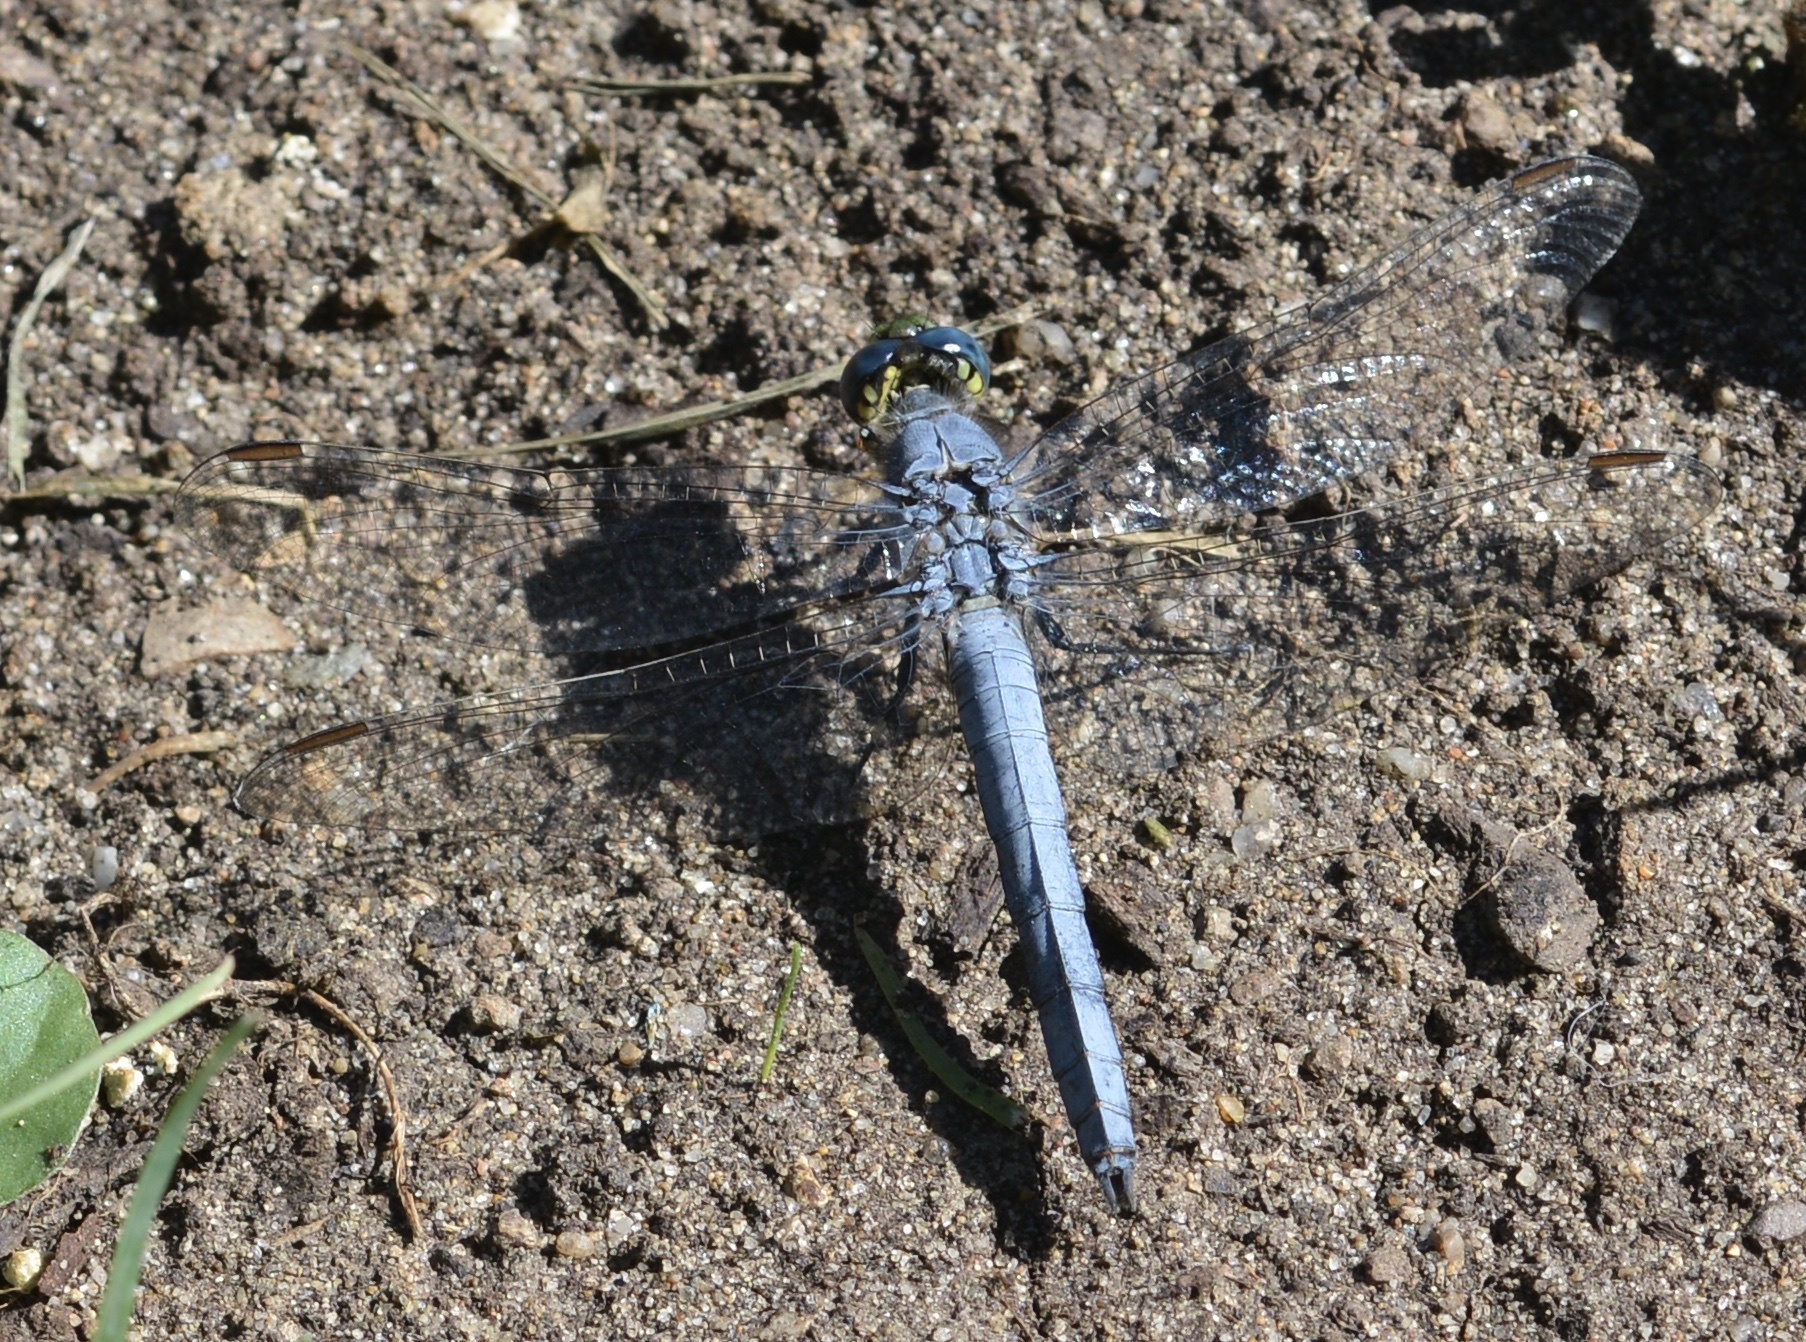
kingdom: Animalia
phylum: Arthropoda
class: Insecta
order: Odonata
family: Libellulidae
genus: Erythemis
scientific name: Erythemis collocata
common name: Western pondhawk
